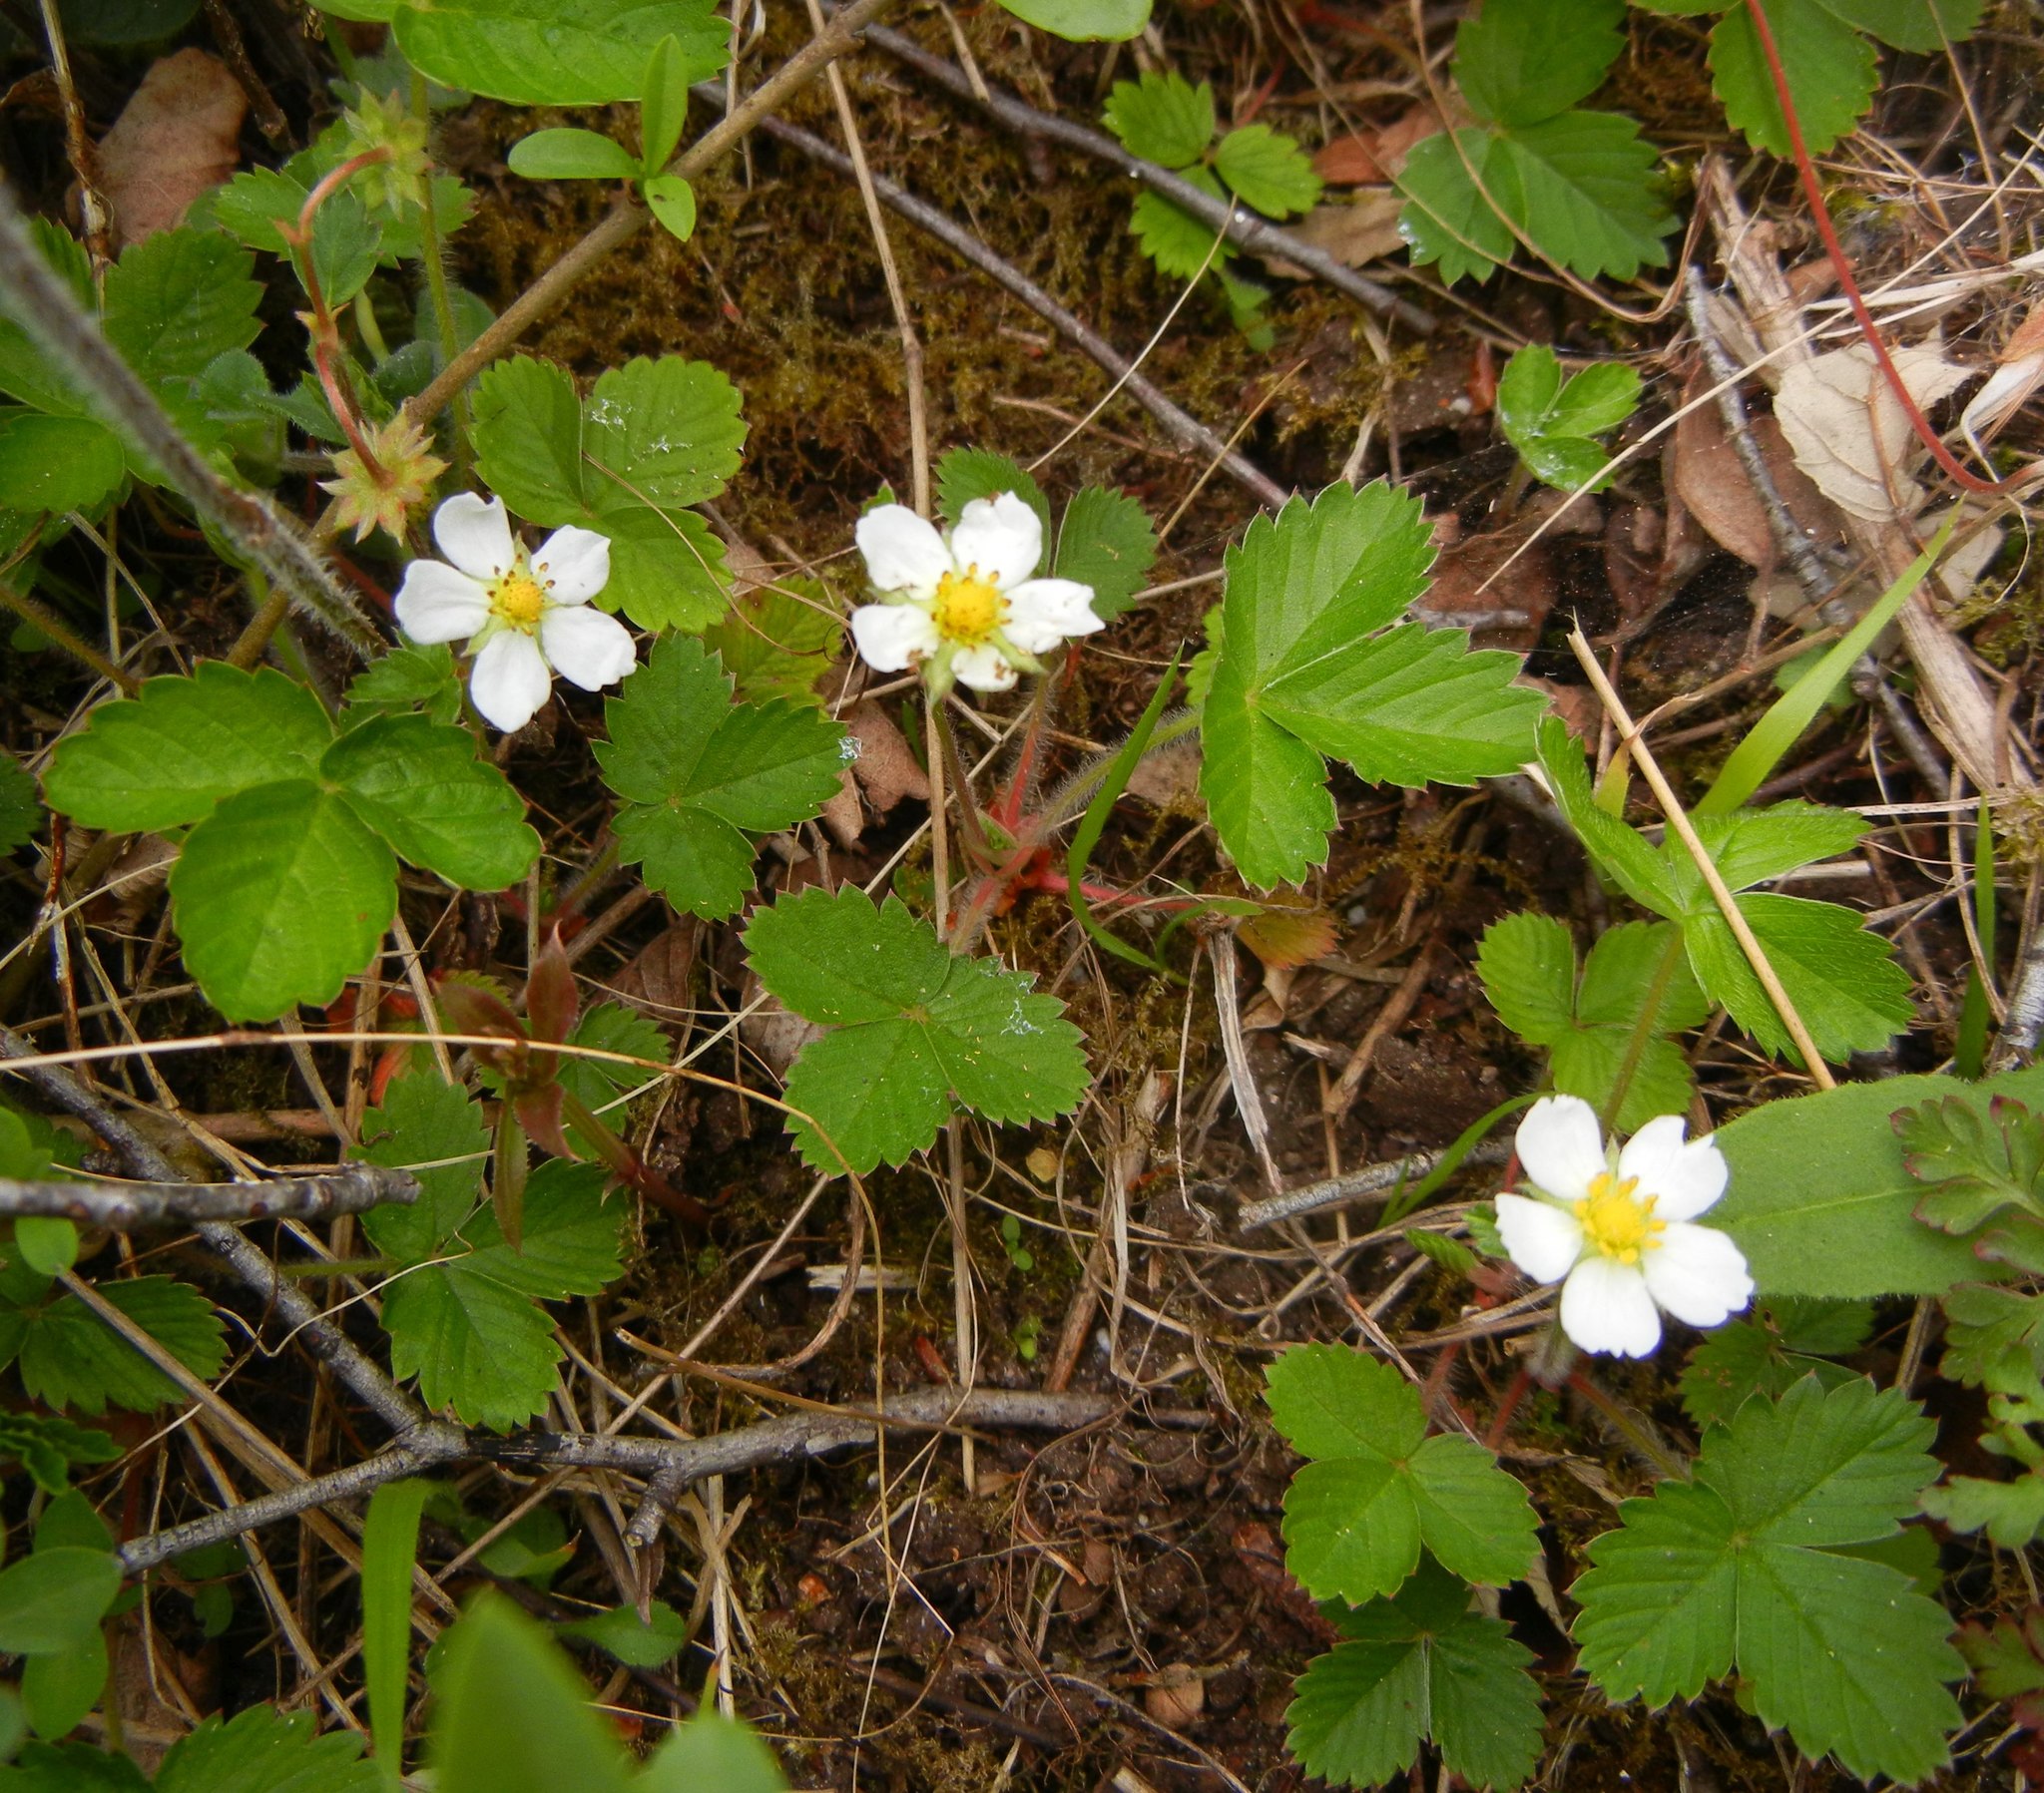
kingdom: Plantae
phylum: Tracheophyta
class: Magnoliopsida
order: Rosales
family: Rosaceae
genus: Fragaria
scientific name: Fragaria vesca
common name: Wild strawberry
